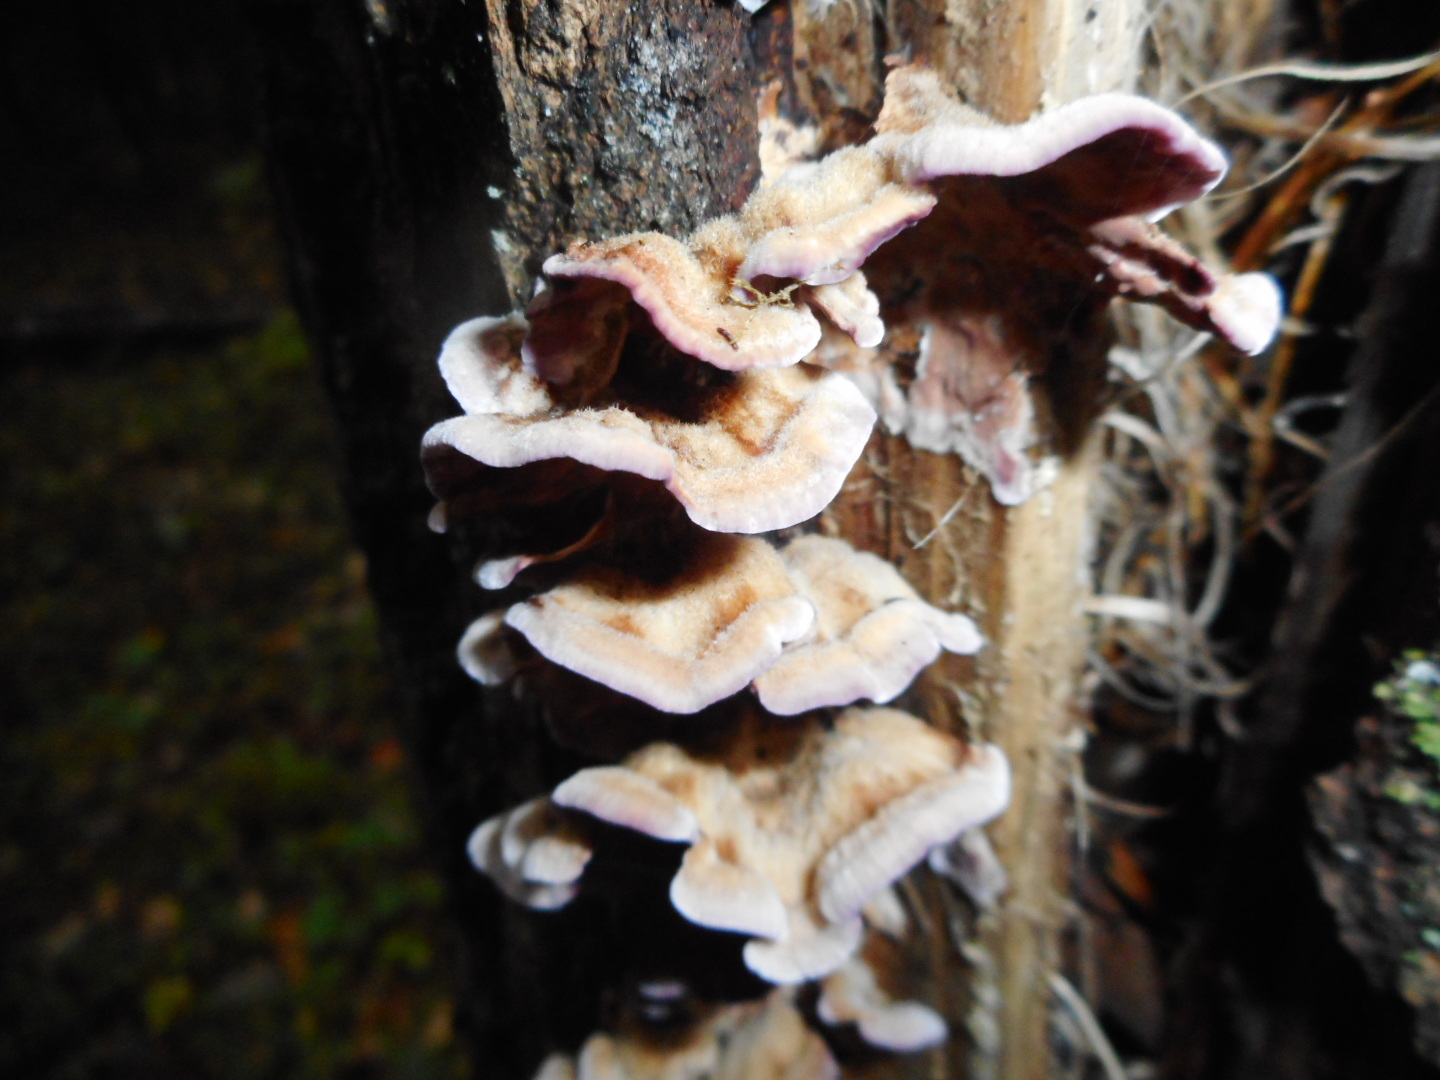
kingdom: Fungi
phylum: Basidiomycota
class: Agaricomycetes
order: Agaricales
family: Cyphellaceae
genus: Chondrostereum
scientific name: Chondrostereum purpureum
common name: Silver leaf disease
